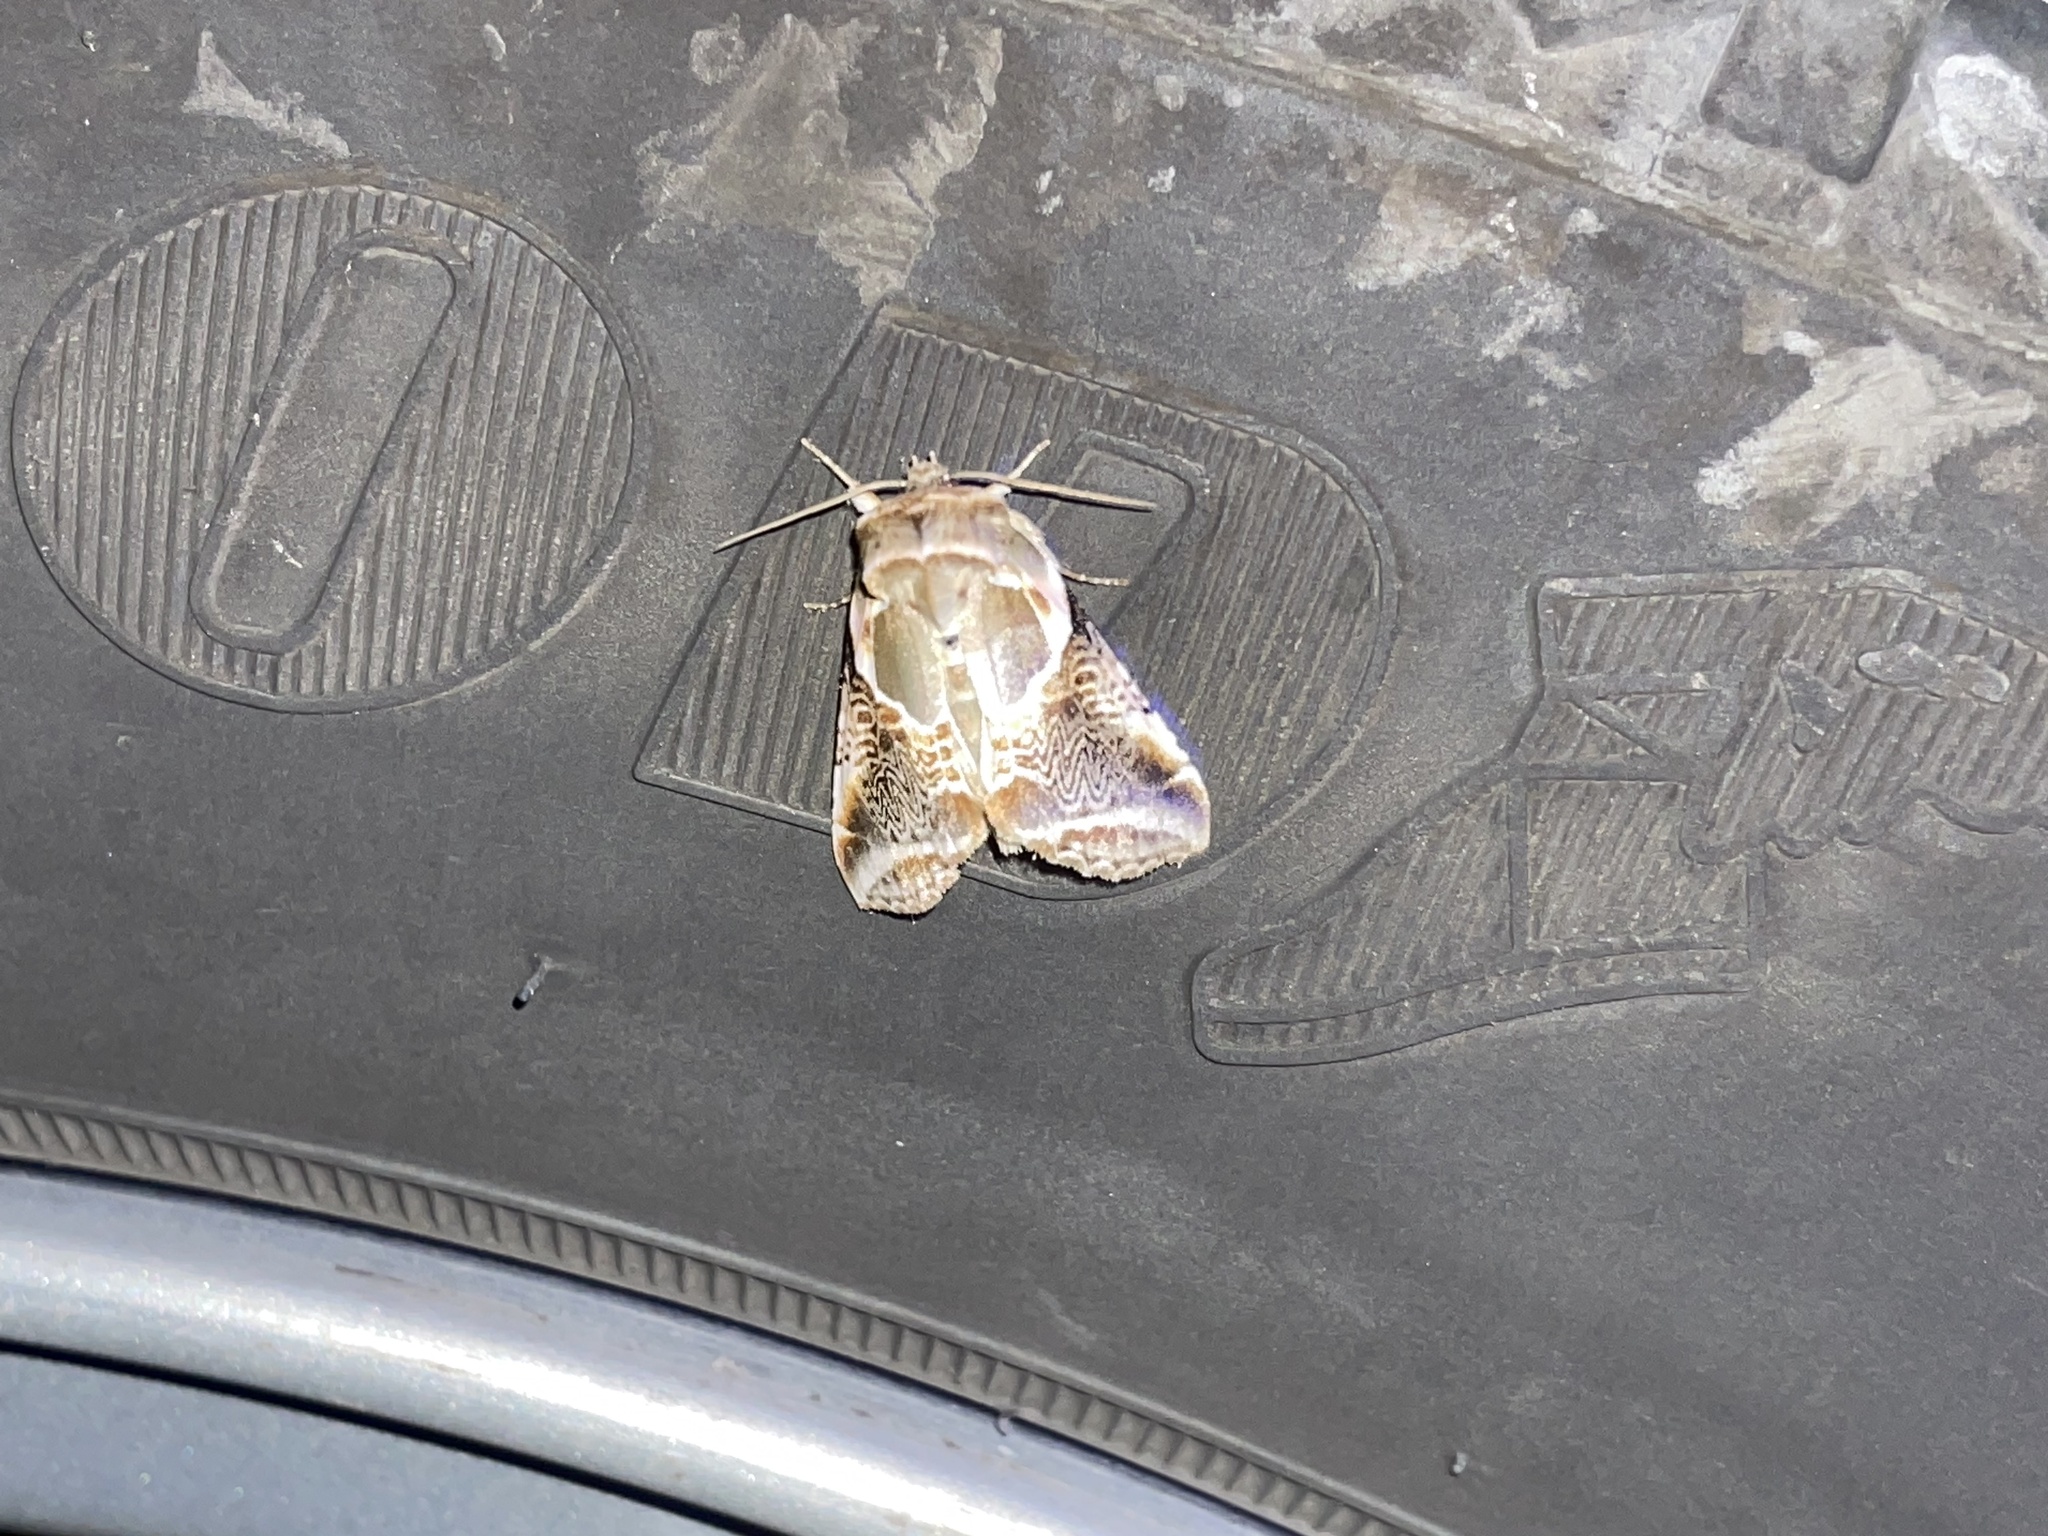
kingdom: Animalia
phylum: Arthropoda
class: Insecta
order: Lepidoptera
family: Drepanidae
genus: Habrosyne
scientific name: Habrosyne scripta
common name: Lettered habrosyne moth
